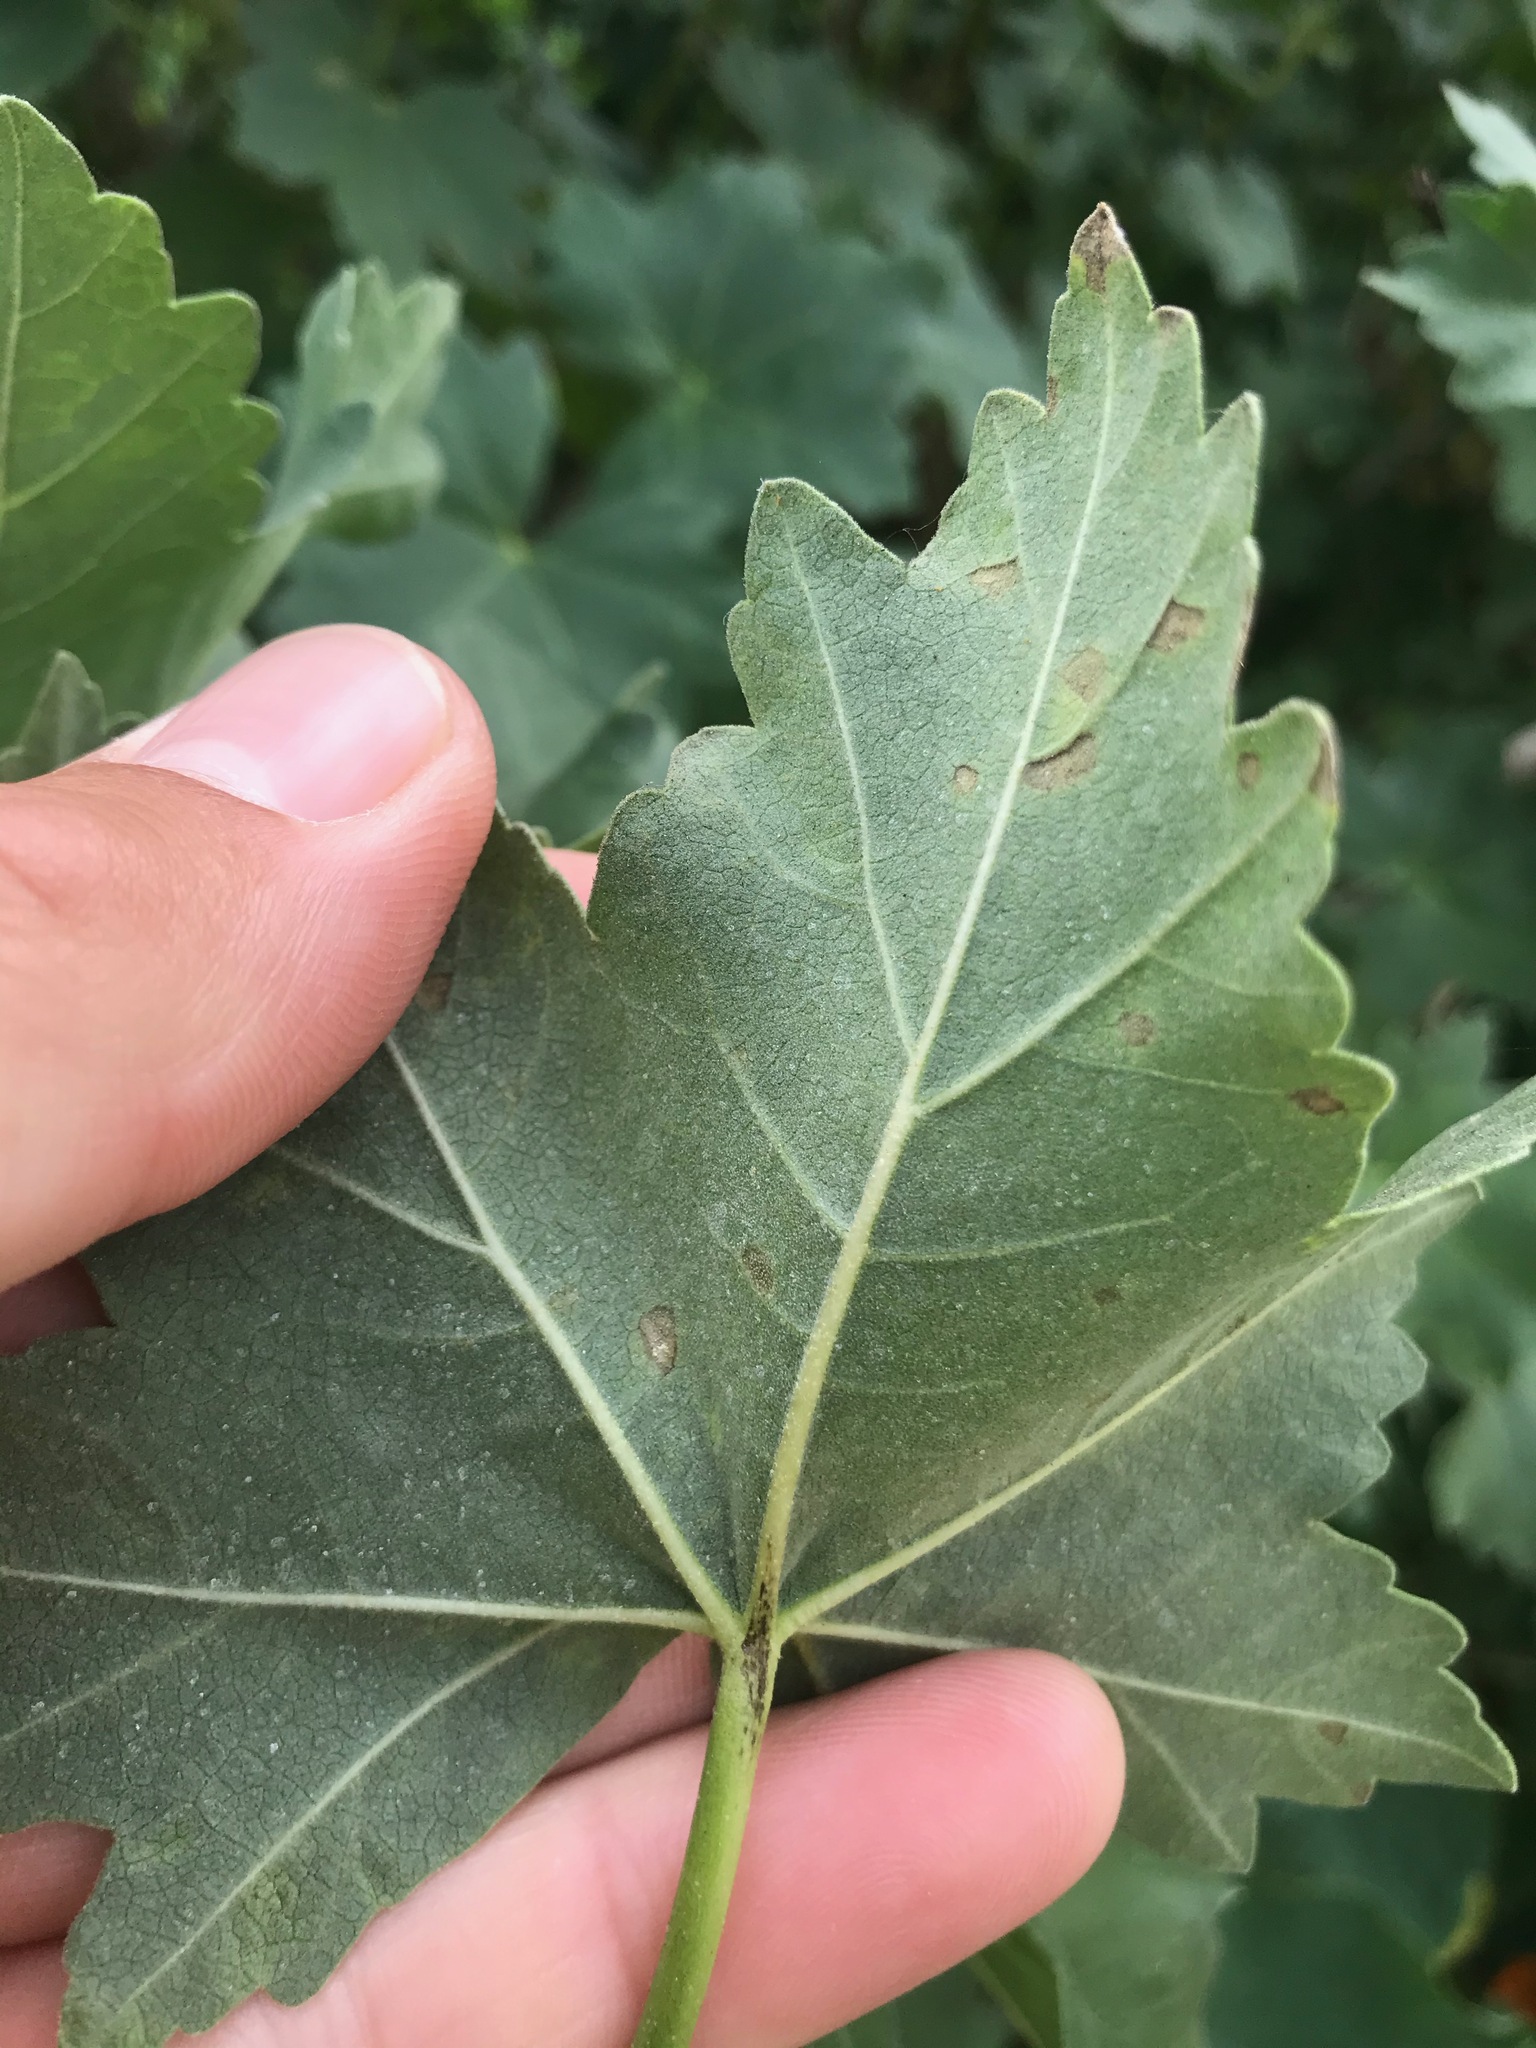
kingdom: Plantae
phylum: Tracheophyta
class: Magnoliopsida
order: Malvales
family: Malvaceae
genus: Malva
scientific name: Malva assurgentiflora
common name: Island mallow
